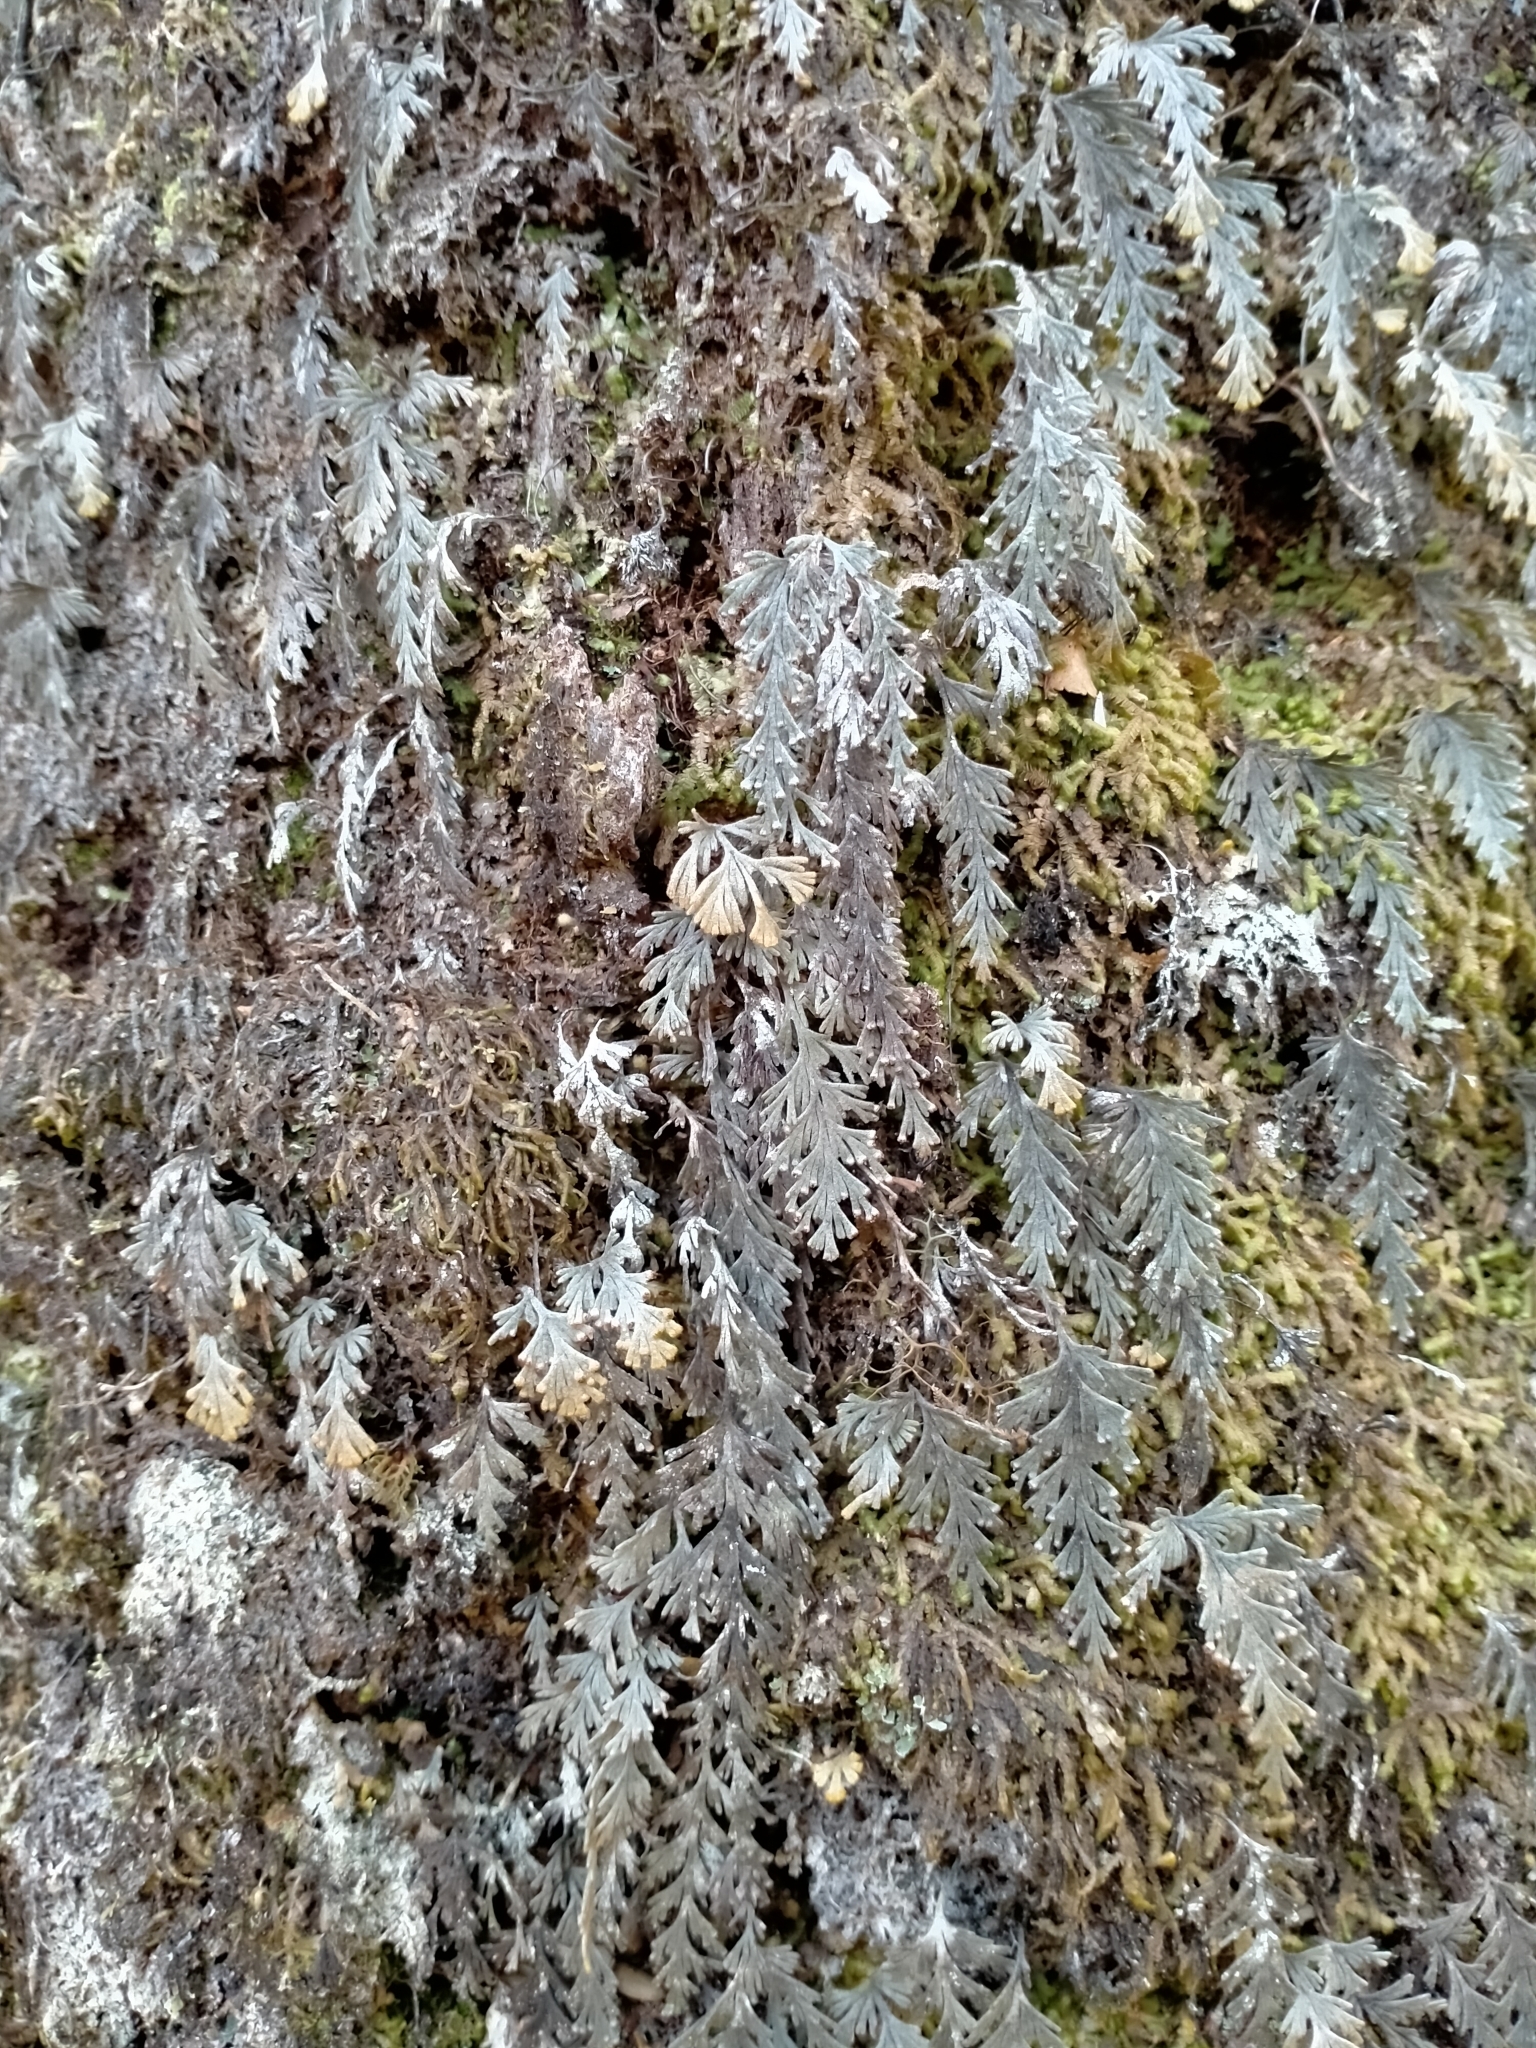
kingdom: Plantae
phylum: Tracheophyta
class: Polypodiopsida
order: Hymenophyllales
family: Hymenophyllaceae
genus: Hymenophyllum
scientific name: Hymenophyllum malingii
